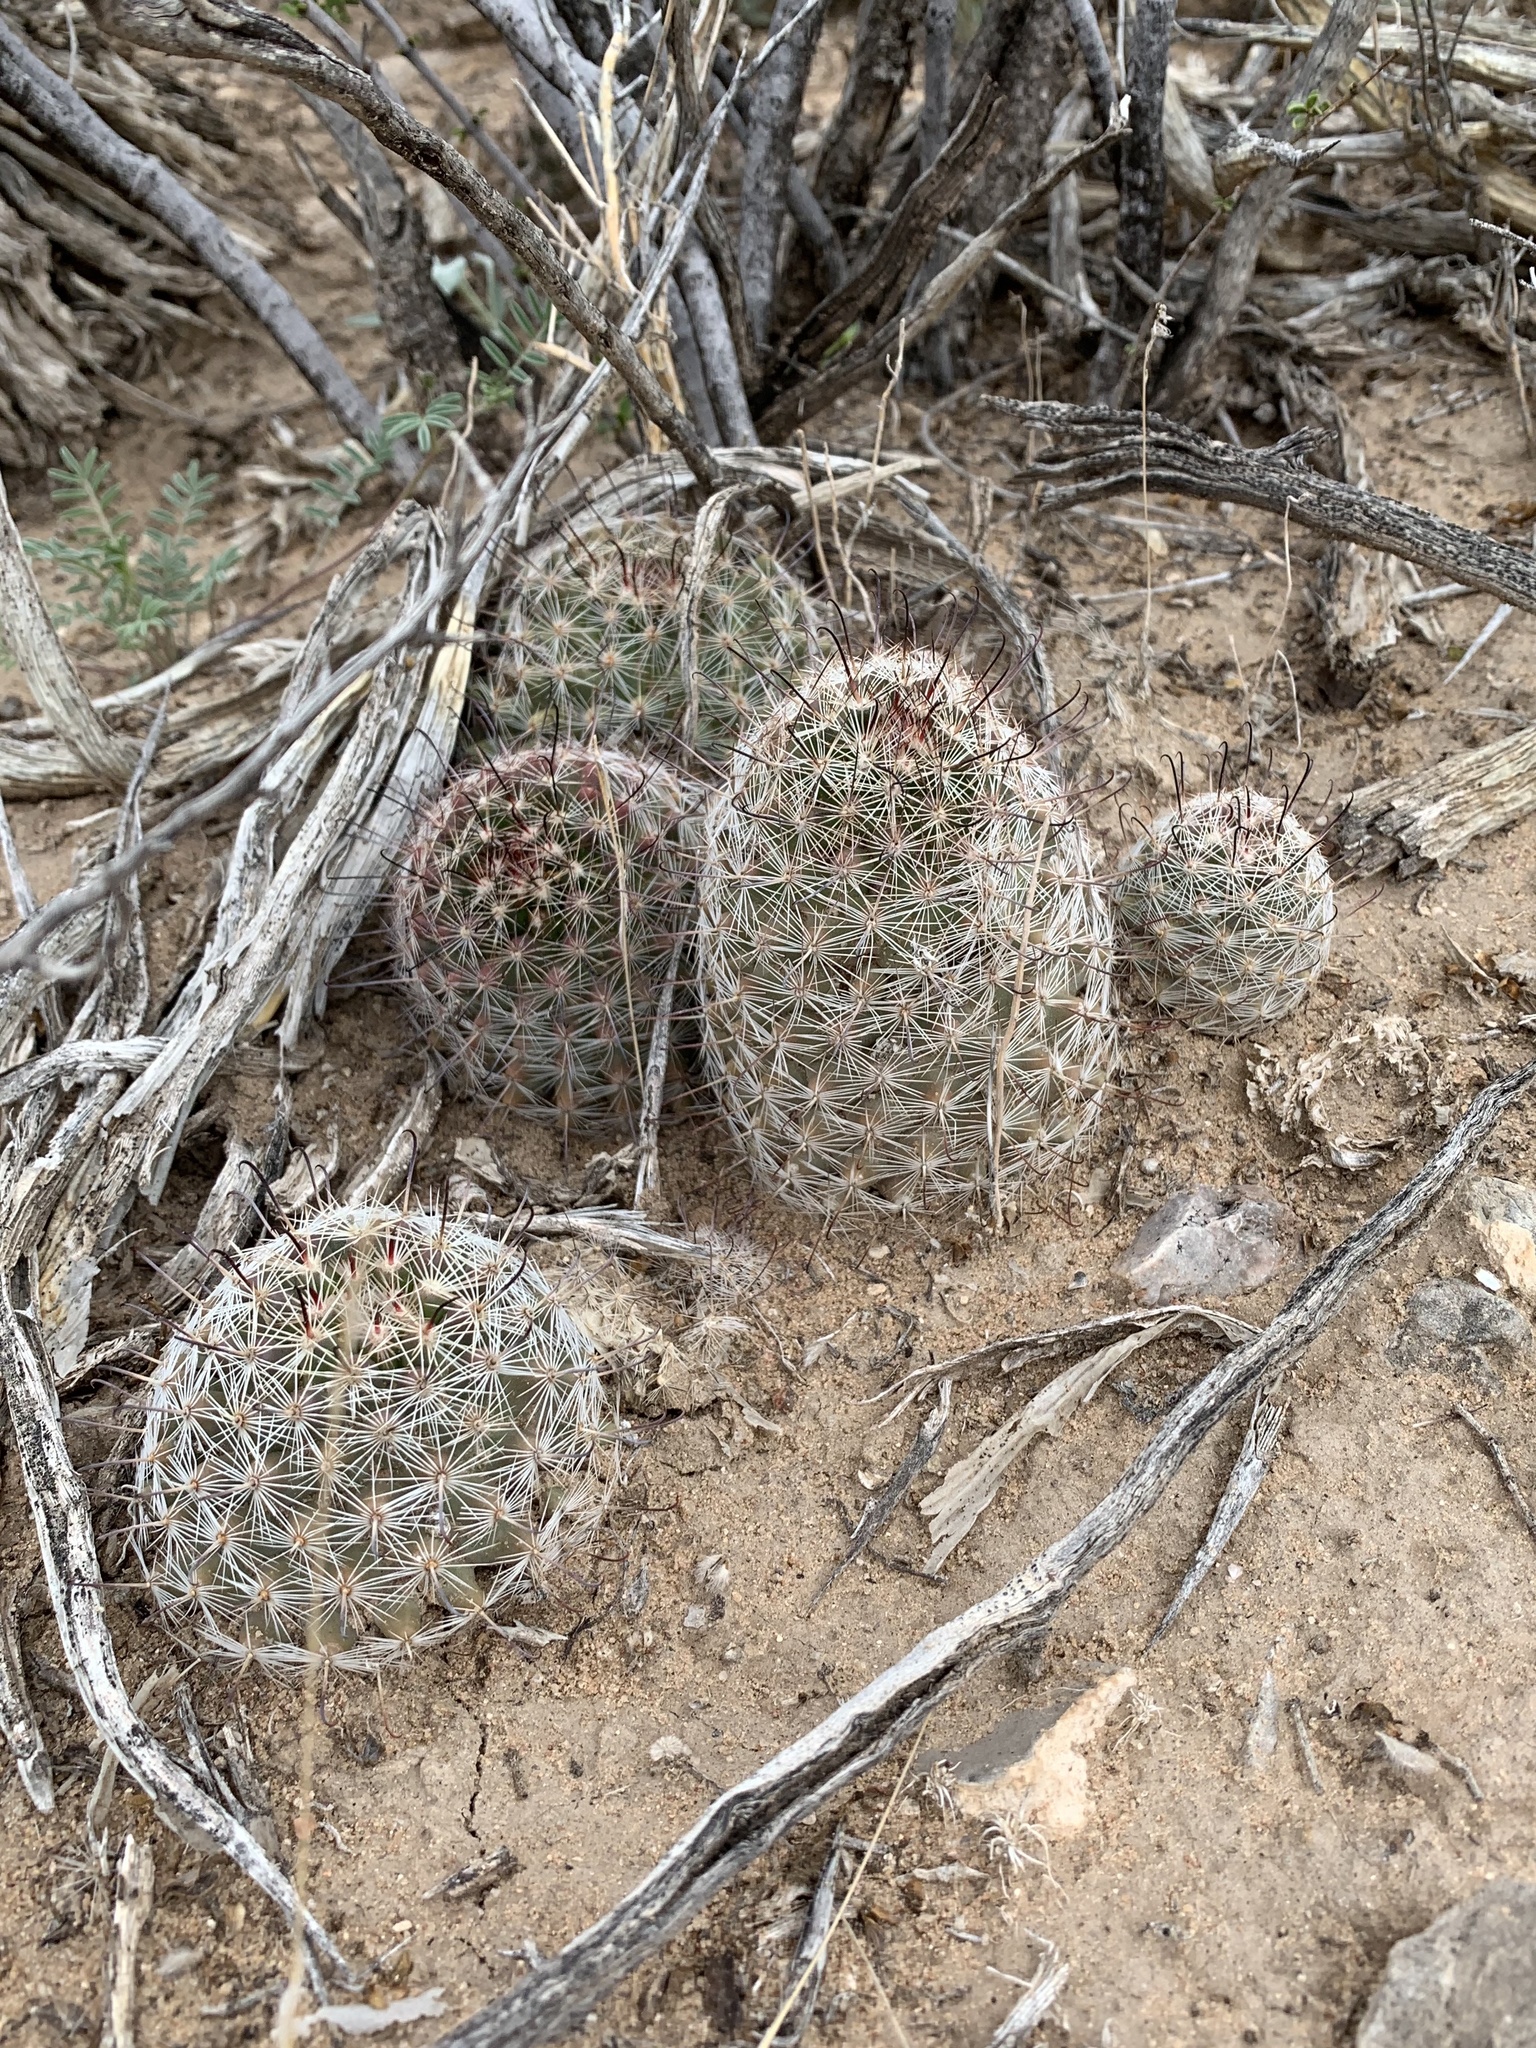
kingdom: Plantae
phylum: Tracheophyta
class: Magnoliopsida
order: Caryophyllales
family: Cactaceae
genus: Cochemiea
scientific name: Cochemiea grahamii
